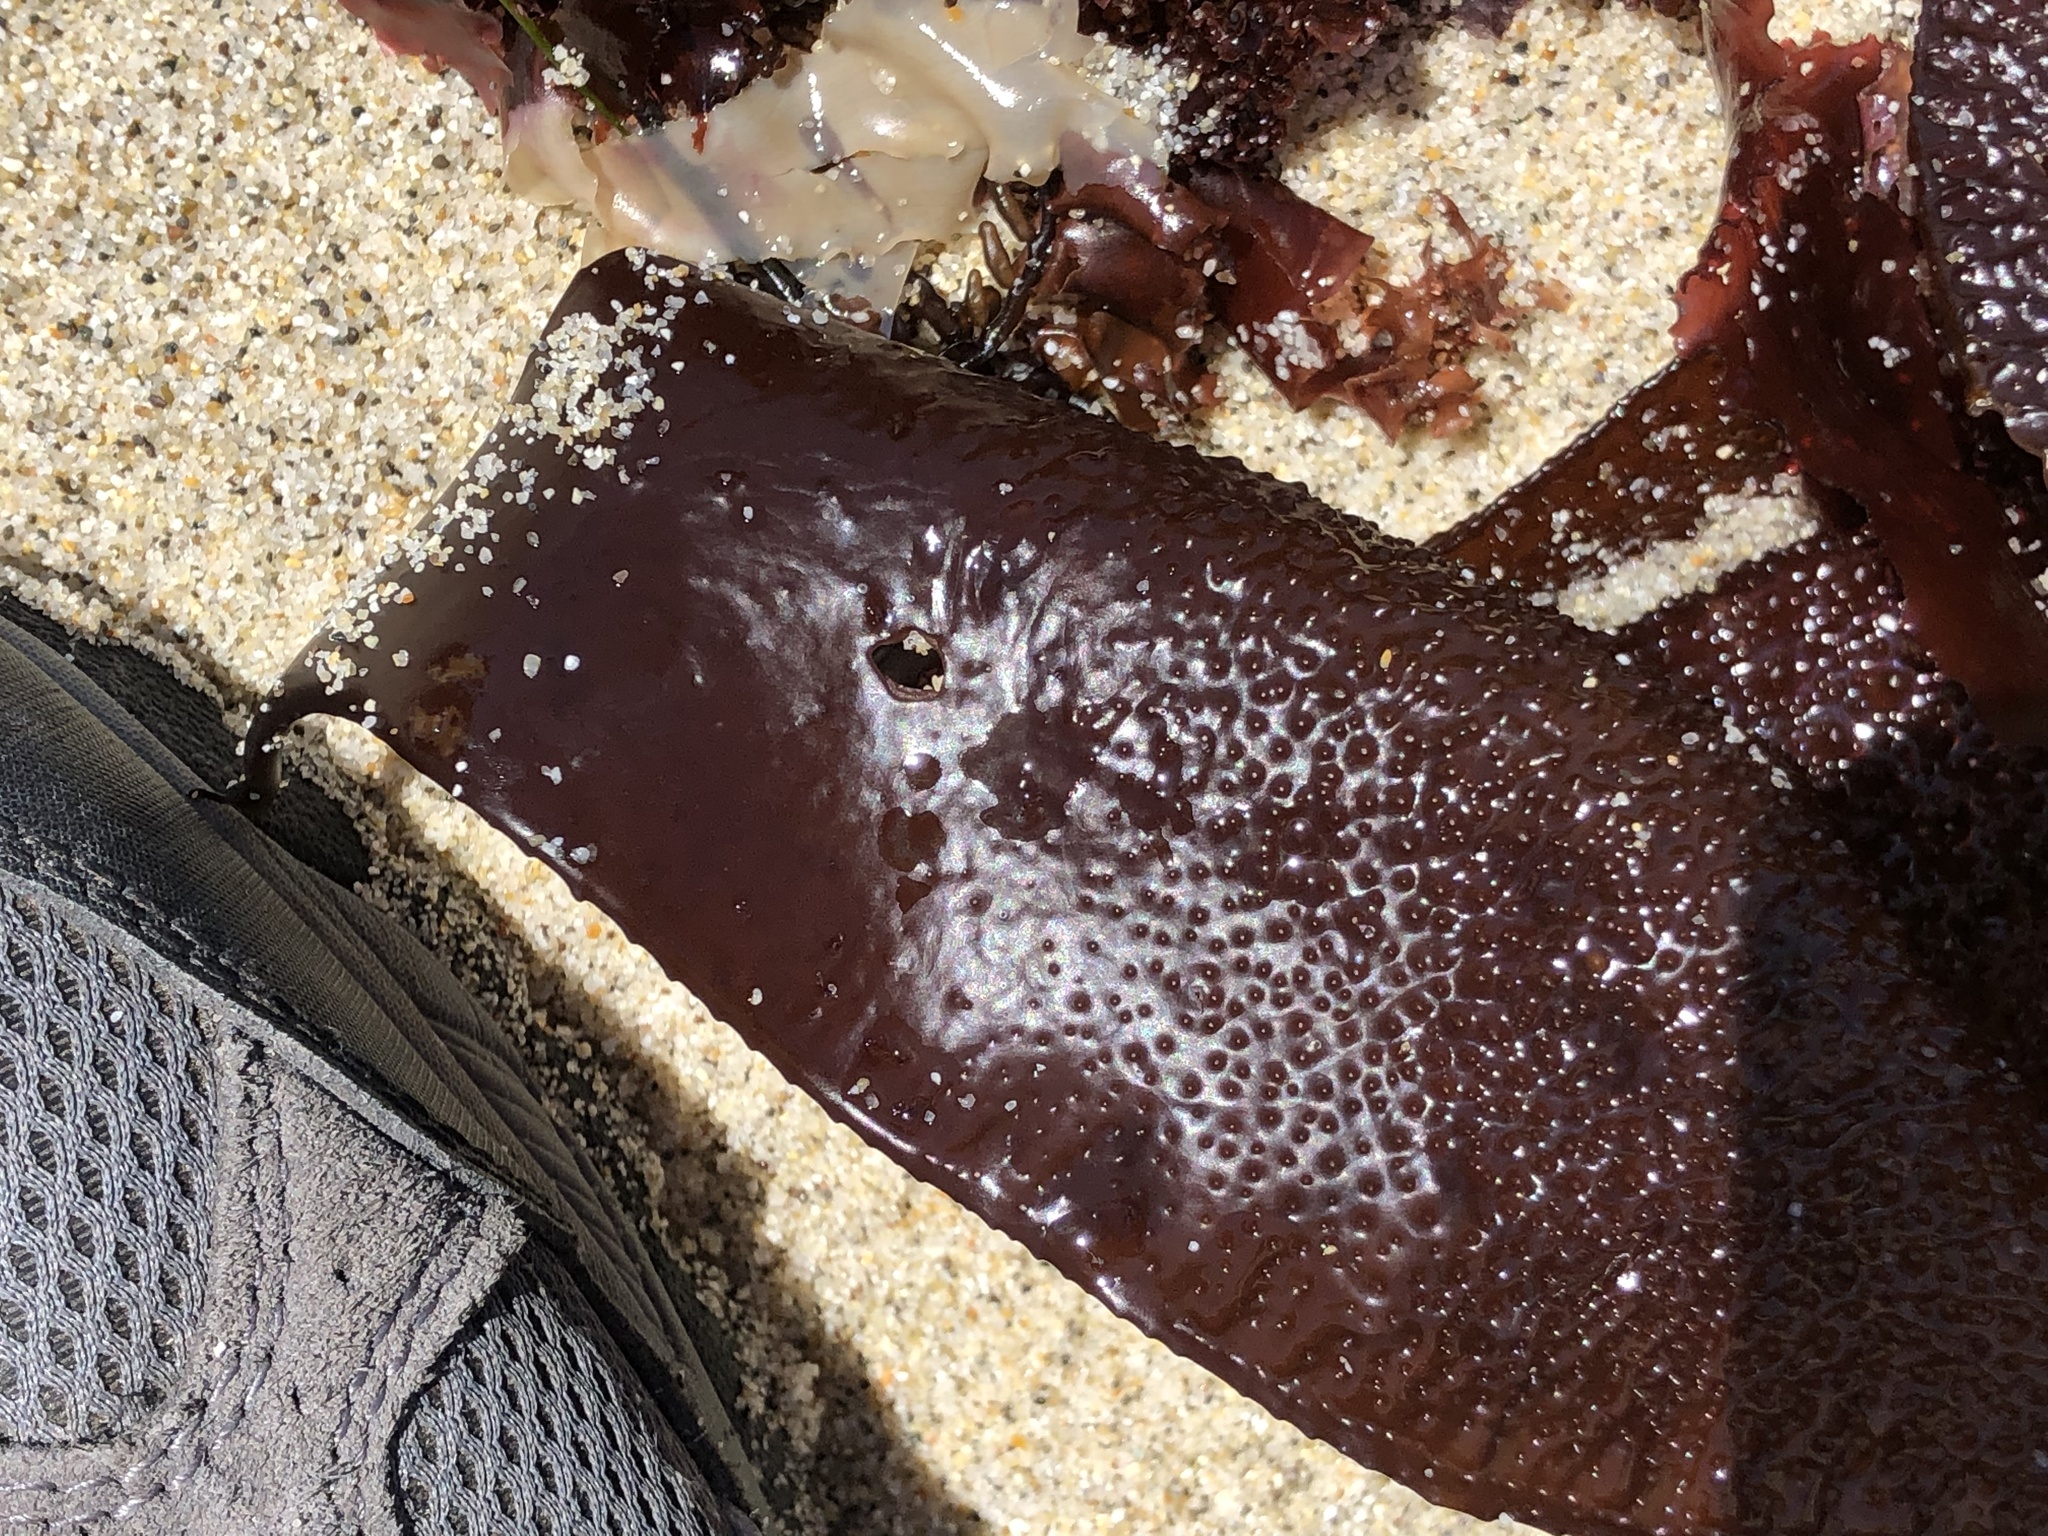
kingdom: Plantae
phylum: Rhodophyta
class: Florideophyceae
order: Gigartinales
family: Gigartinaceae
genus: Chondracanthus
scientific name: Chondracanthus exasperatus
